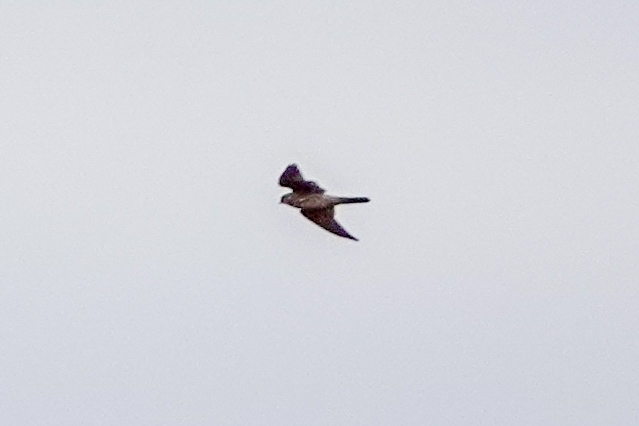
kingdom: Animalia
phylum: Chordata
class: Aves
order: Falconiformes
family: Falconidae
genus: Falco
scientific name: Falco columbarius
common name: Merlin
